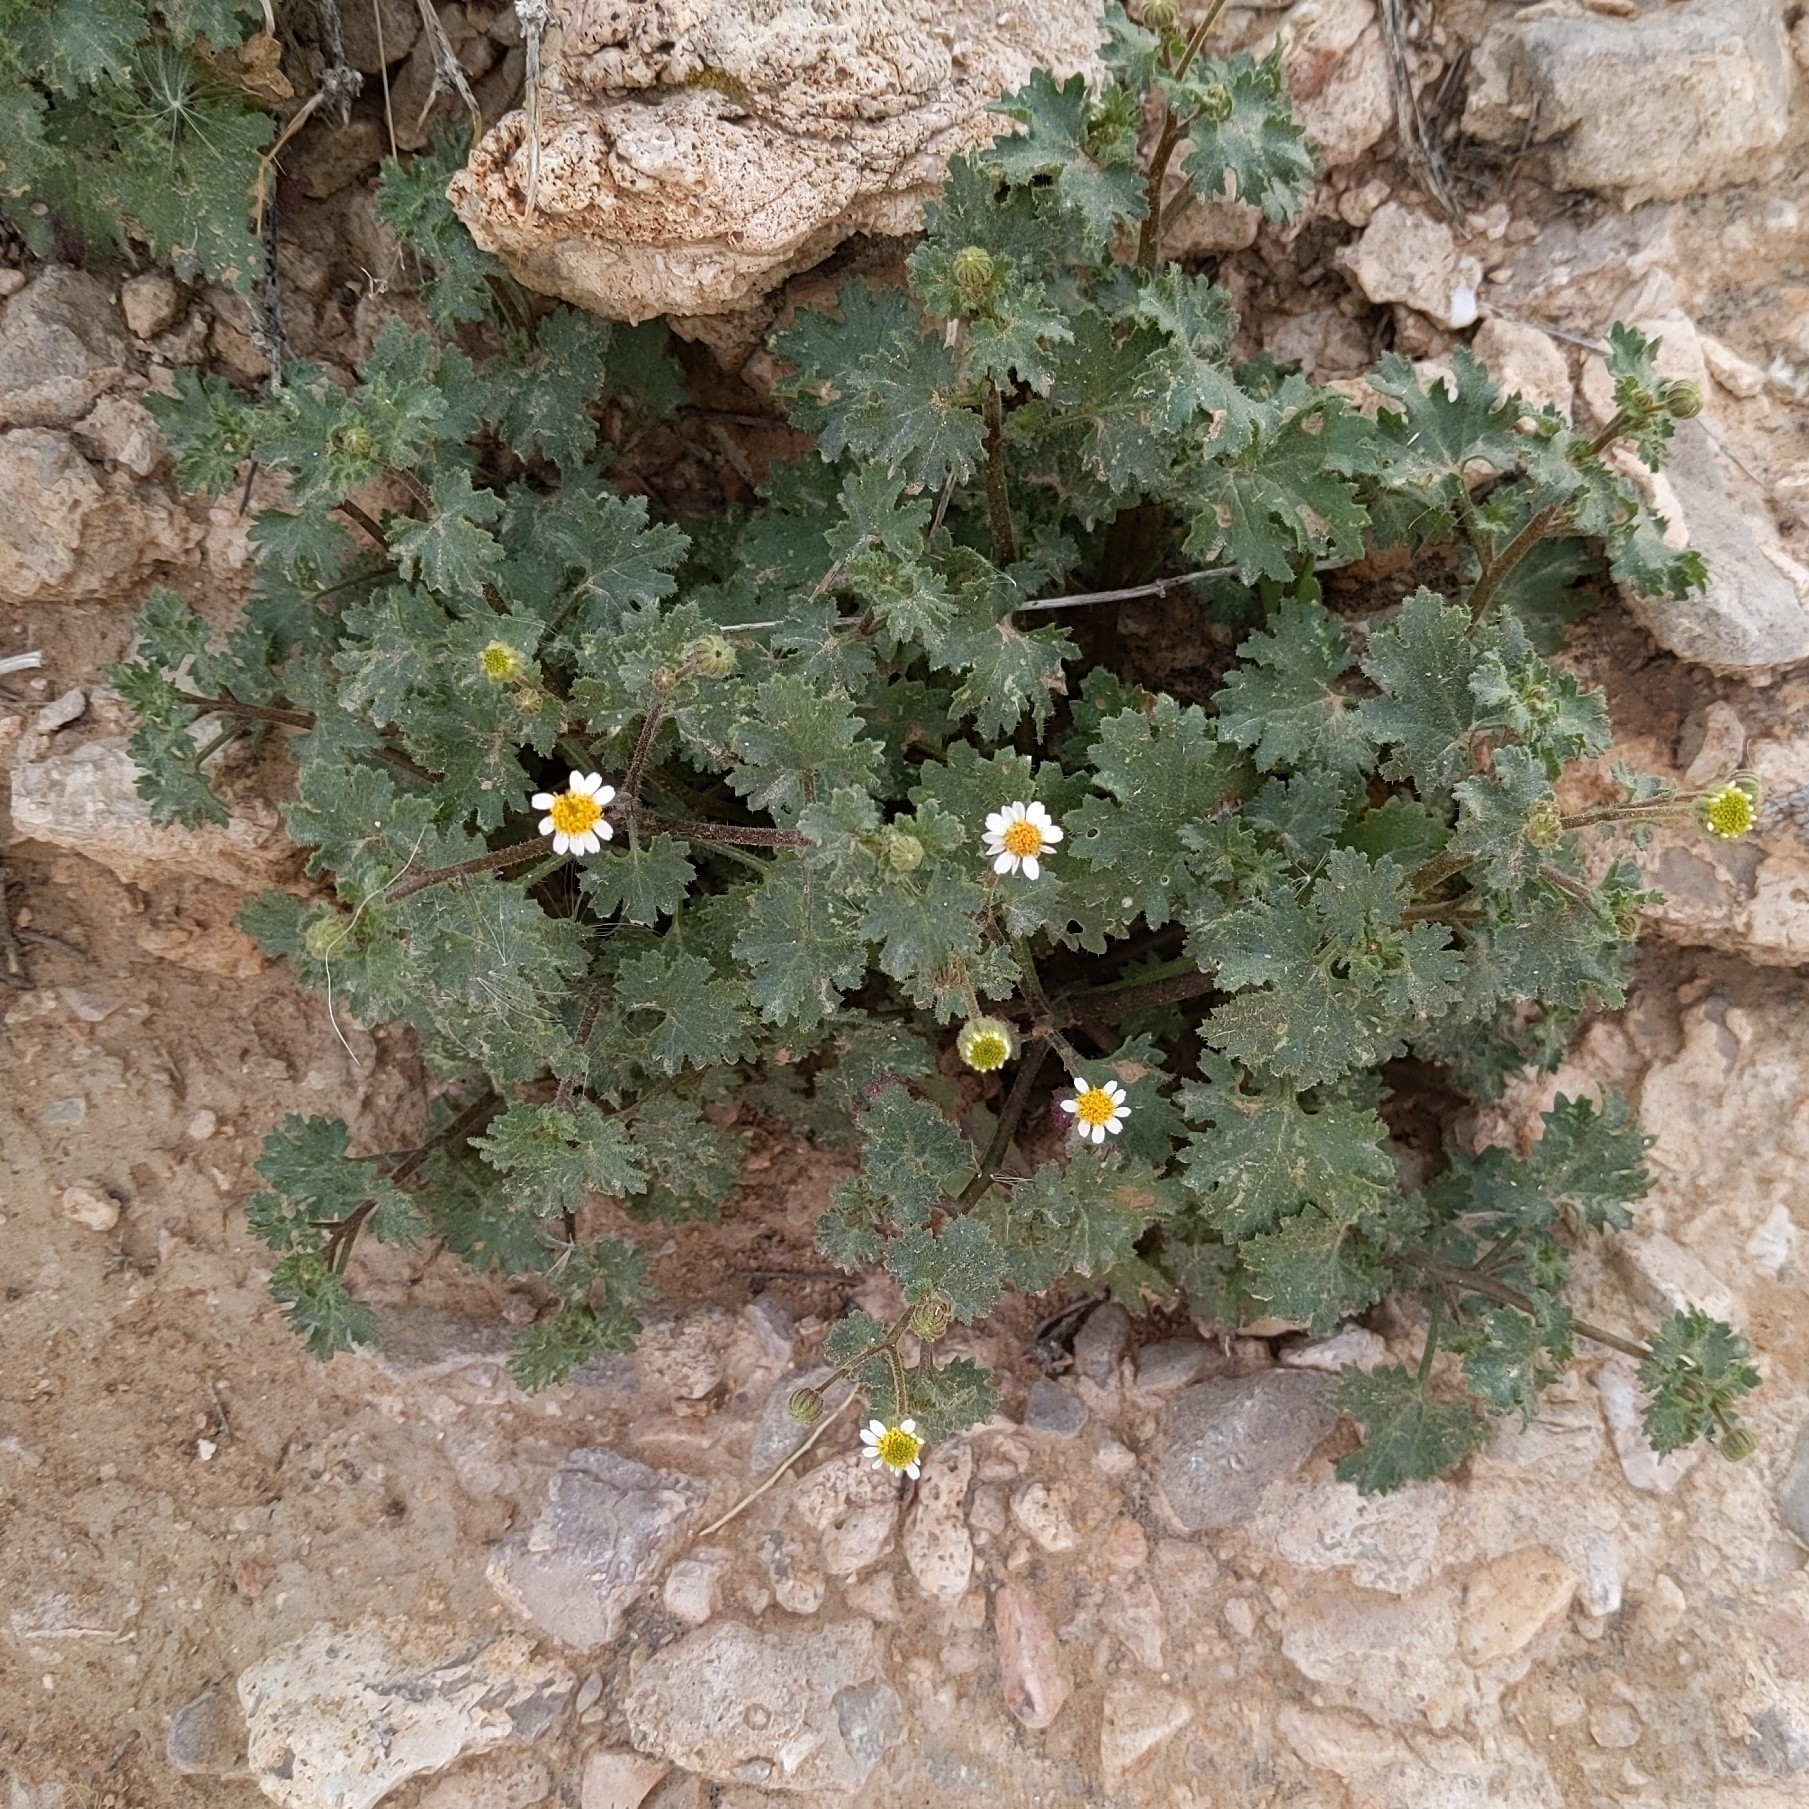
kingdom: Plantae
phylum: Tracheophyta
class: Magnoliopsida
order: Asterales
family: Asteraceae
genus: Laphamia
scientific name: Laphamia emoryi
